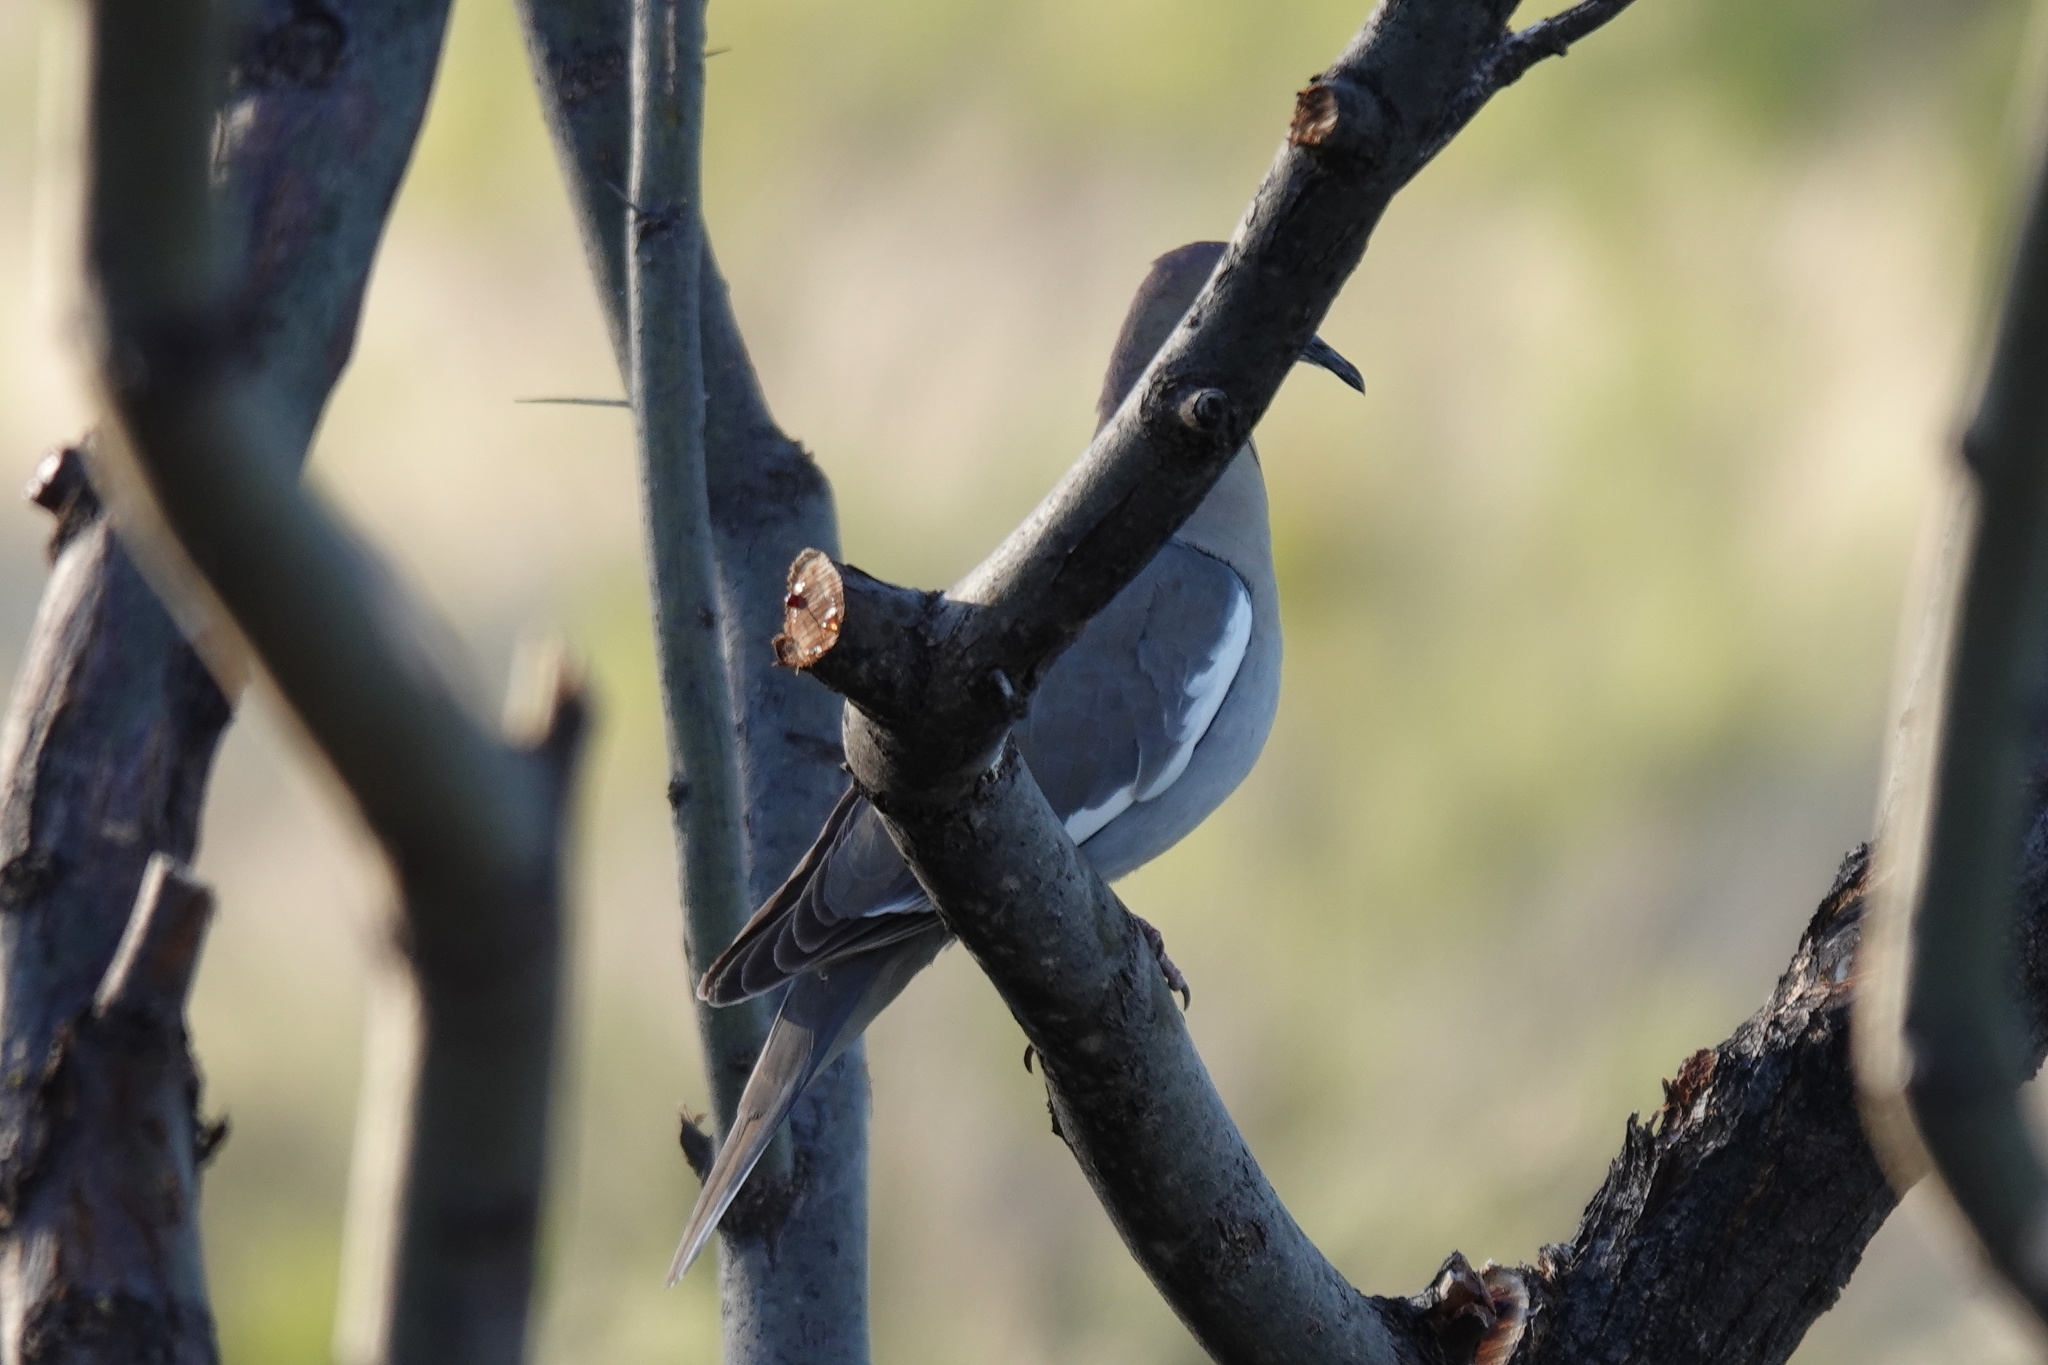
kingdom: Animalia
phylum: Chordata
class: Aves
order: Columbiformes
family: Columbidae
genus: Zenaida
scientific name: Zenaida asiatica
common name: White-winged dove
